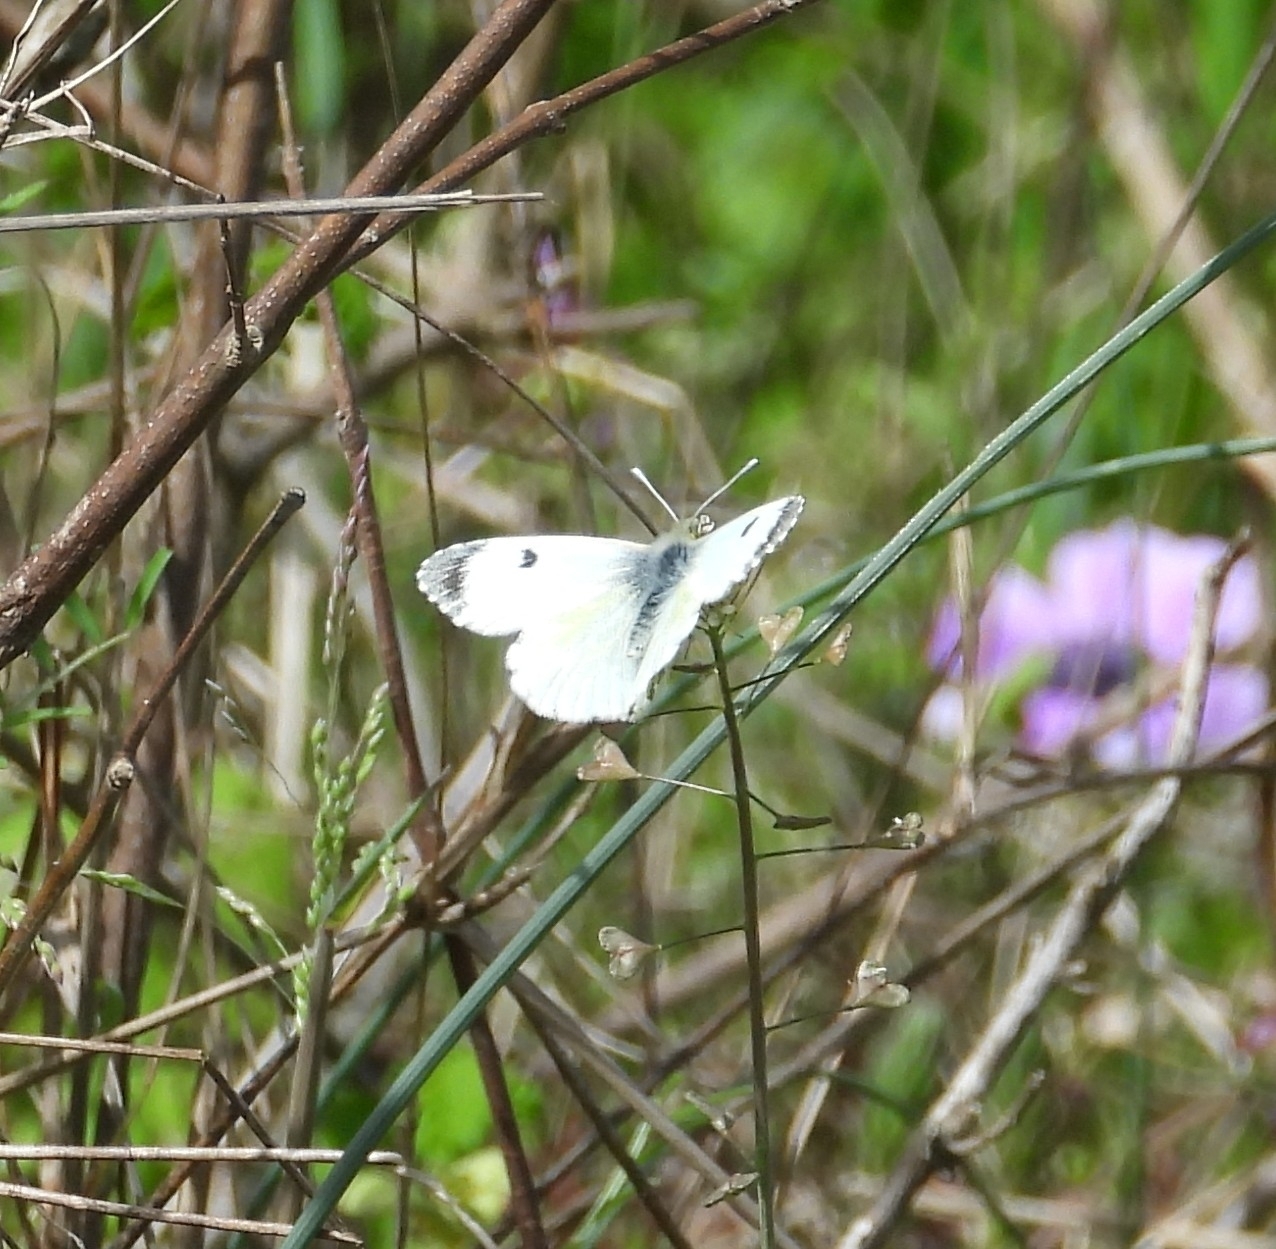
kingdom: Animalia
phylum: Arthropoda
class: Insecta
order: Lepidoptera
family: Pieridae
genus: Anthocharis
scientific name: Anthocharis cardamines
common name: Orange-tip
